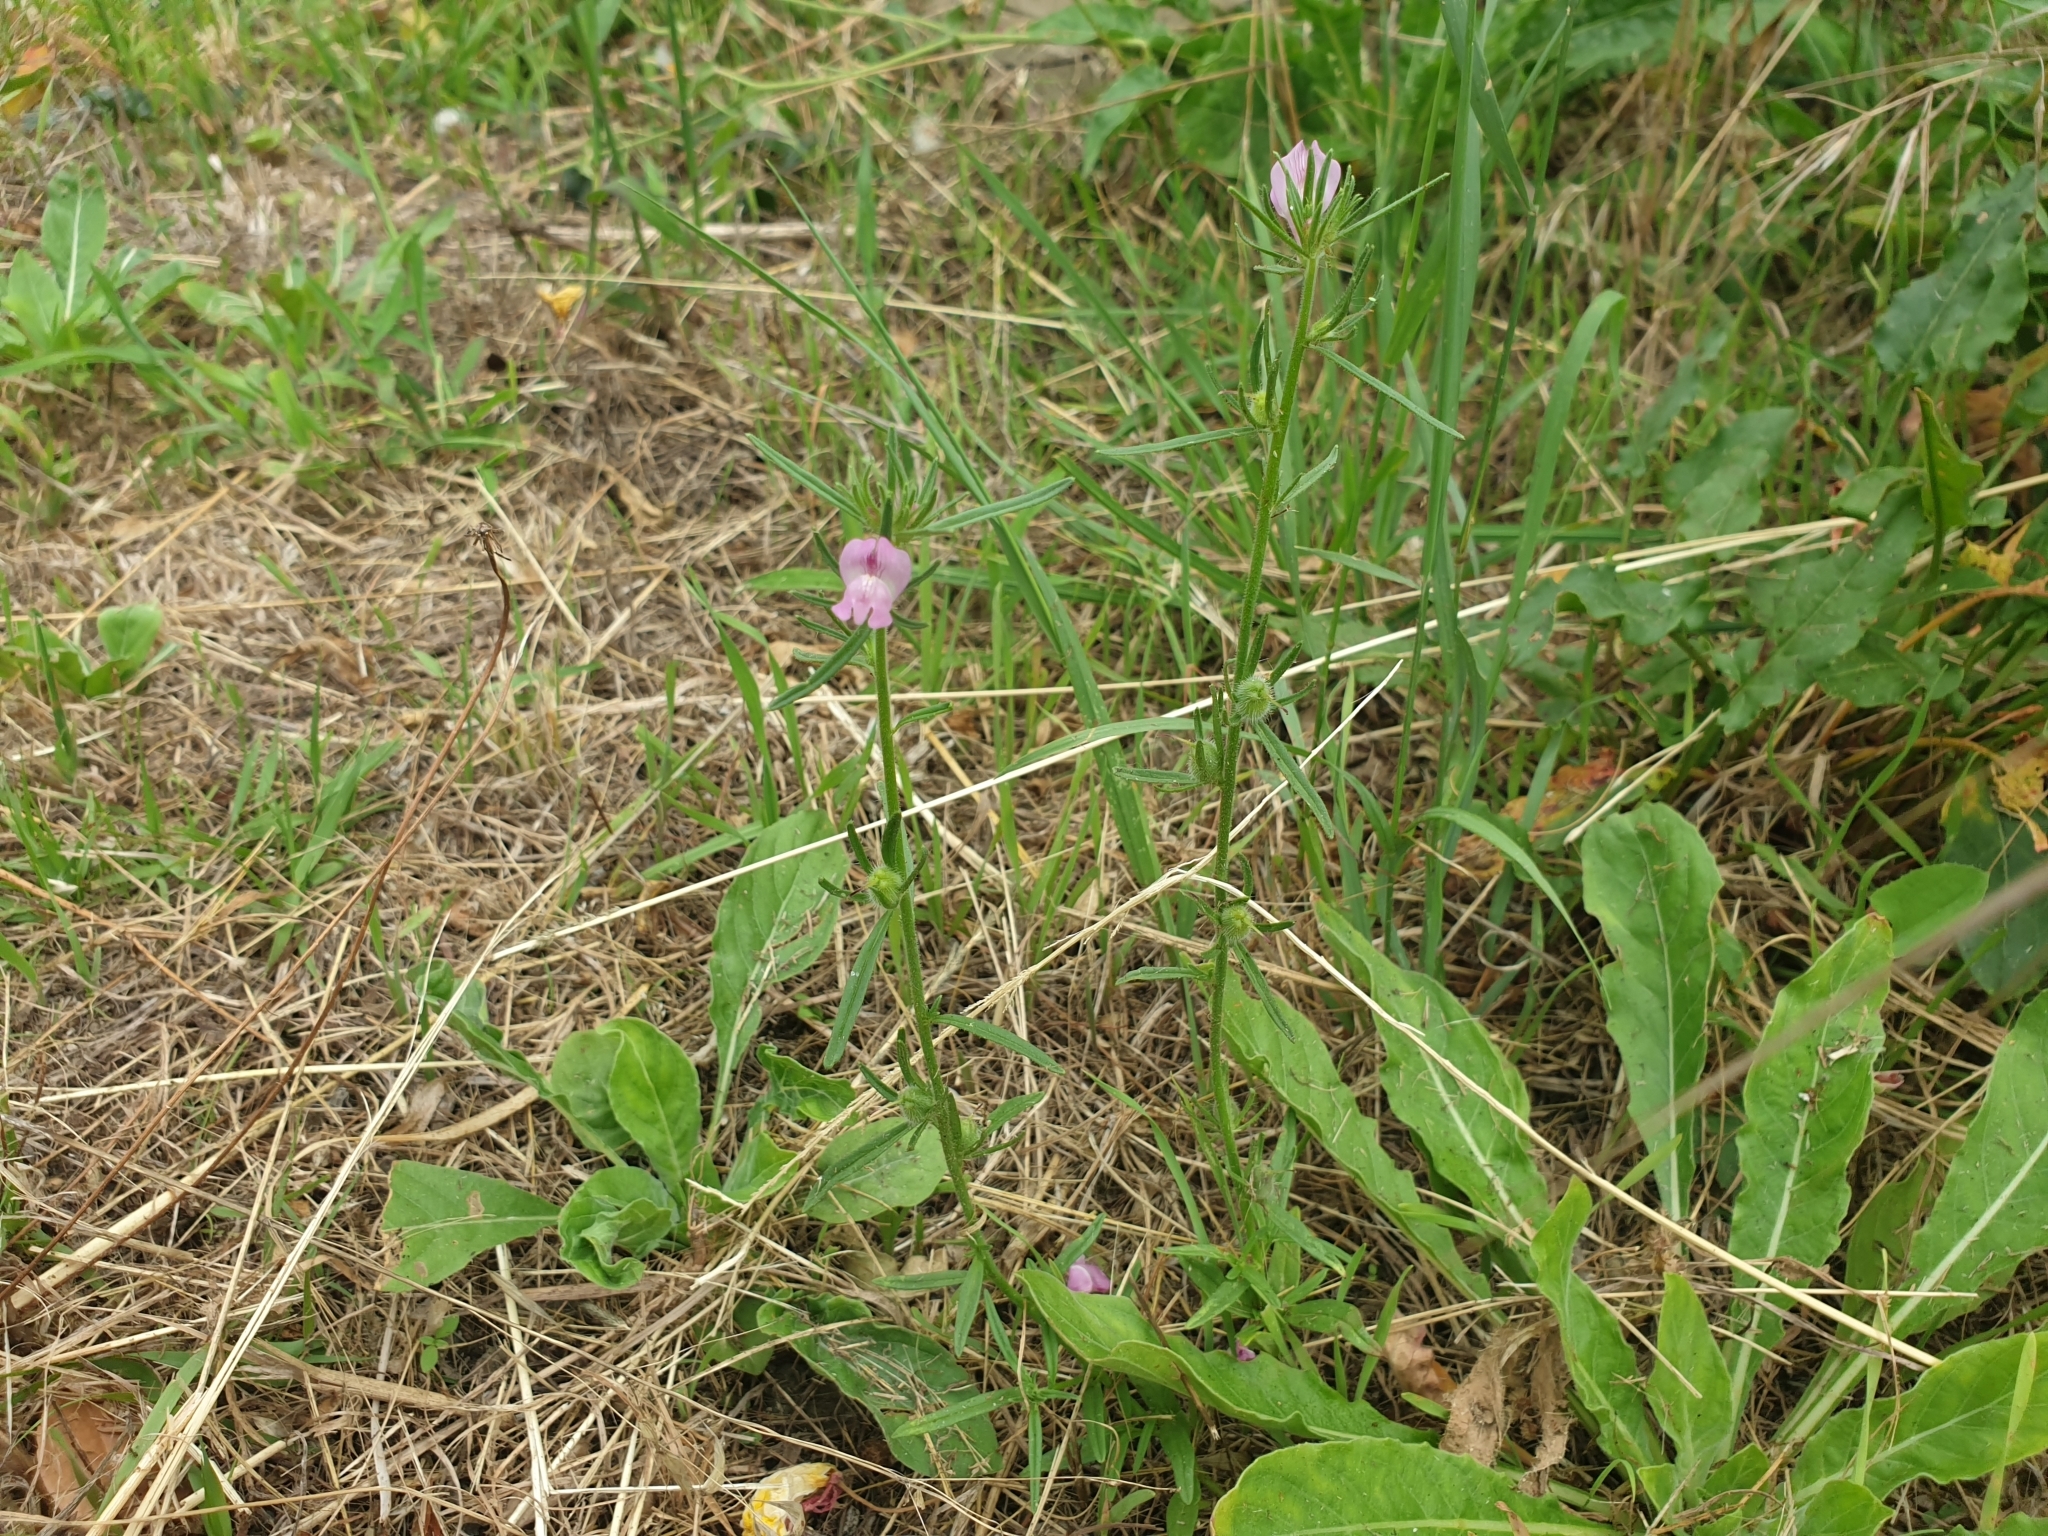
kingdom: Plantae
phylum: Tracheophyta
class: Magnoliopsida
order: Lamiales
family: Plantaginaceae
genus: Misopates
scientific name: Misopates orontium
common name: Weasel's-snout
